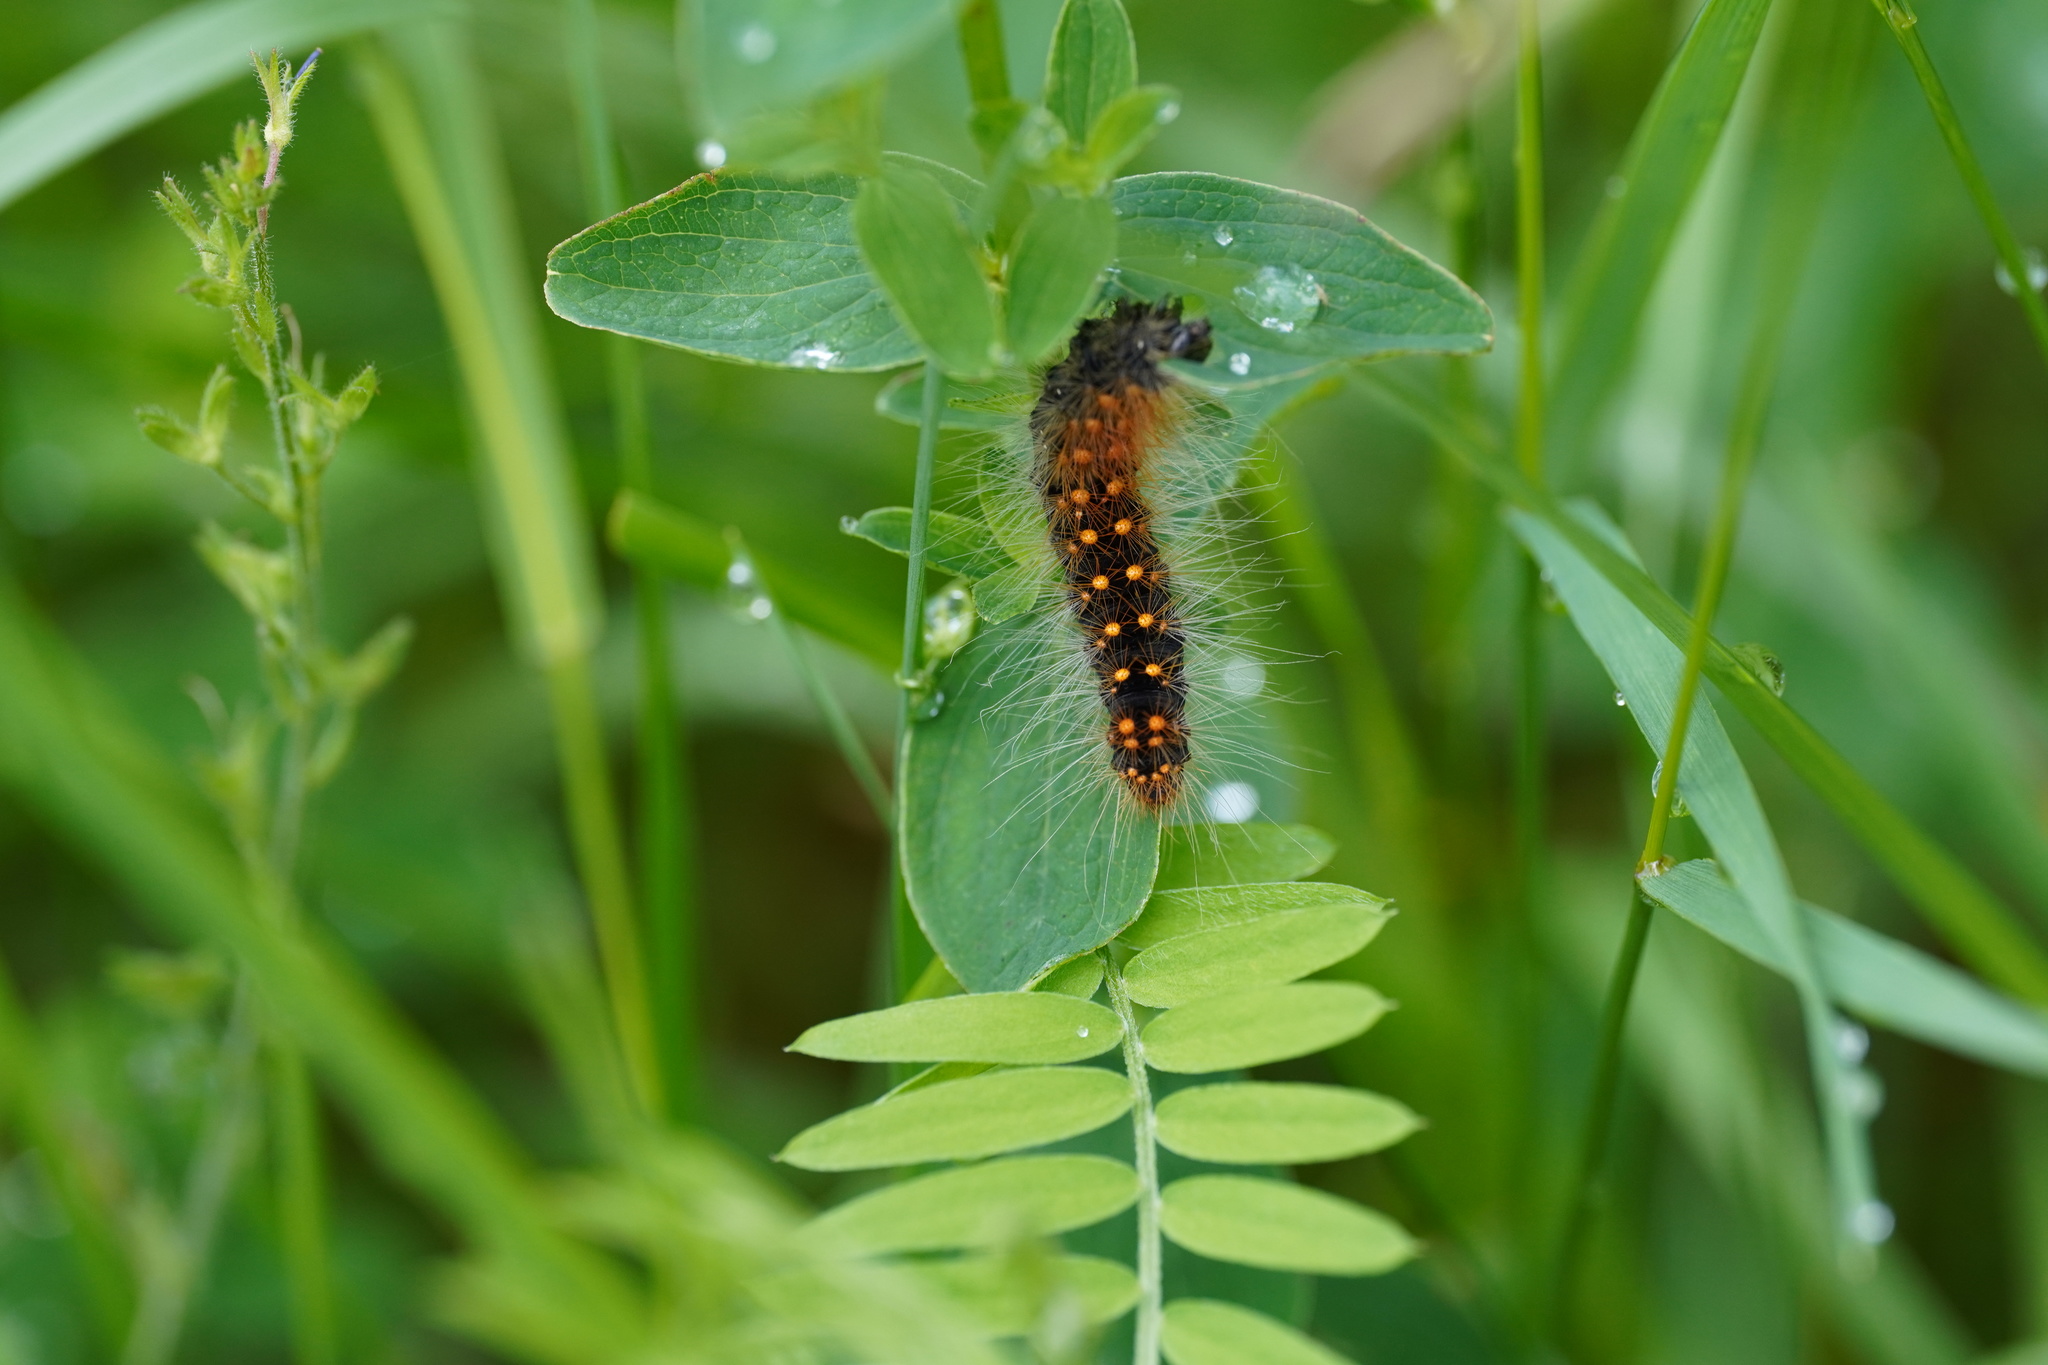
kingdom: Animalia
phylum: Arthropoda
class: Insecta
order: Lepidoptera
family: Noctuidae
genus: Acronicta
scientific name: Acronicta auricoma
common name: Scarce dagger
